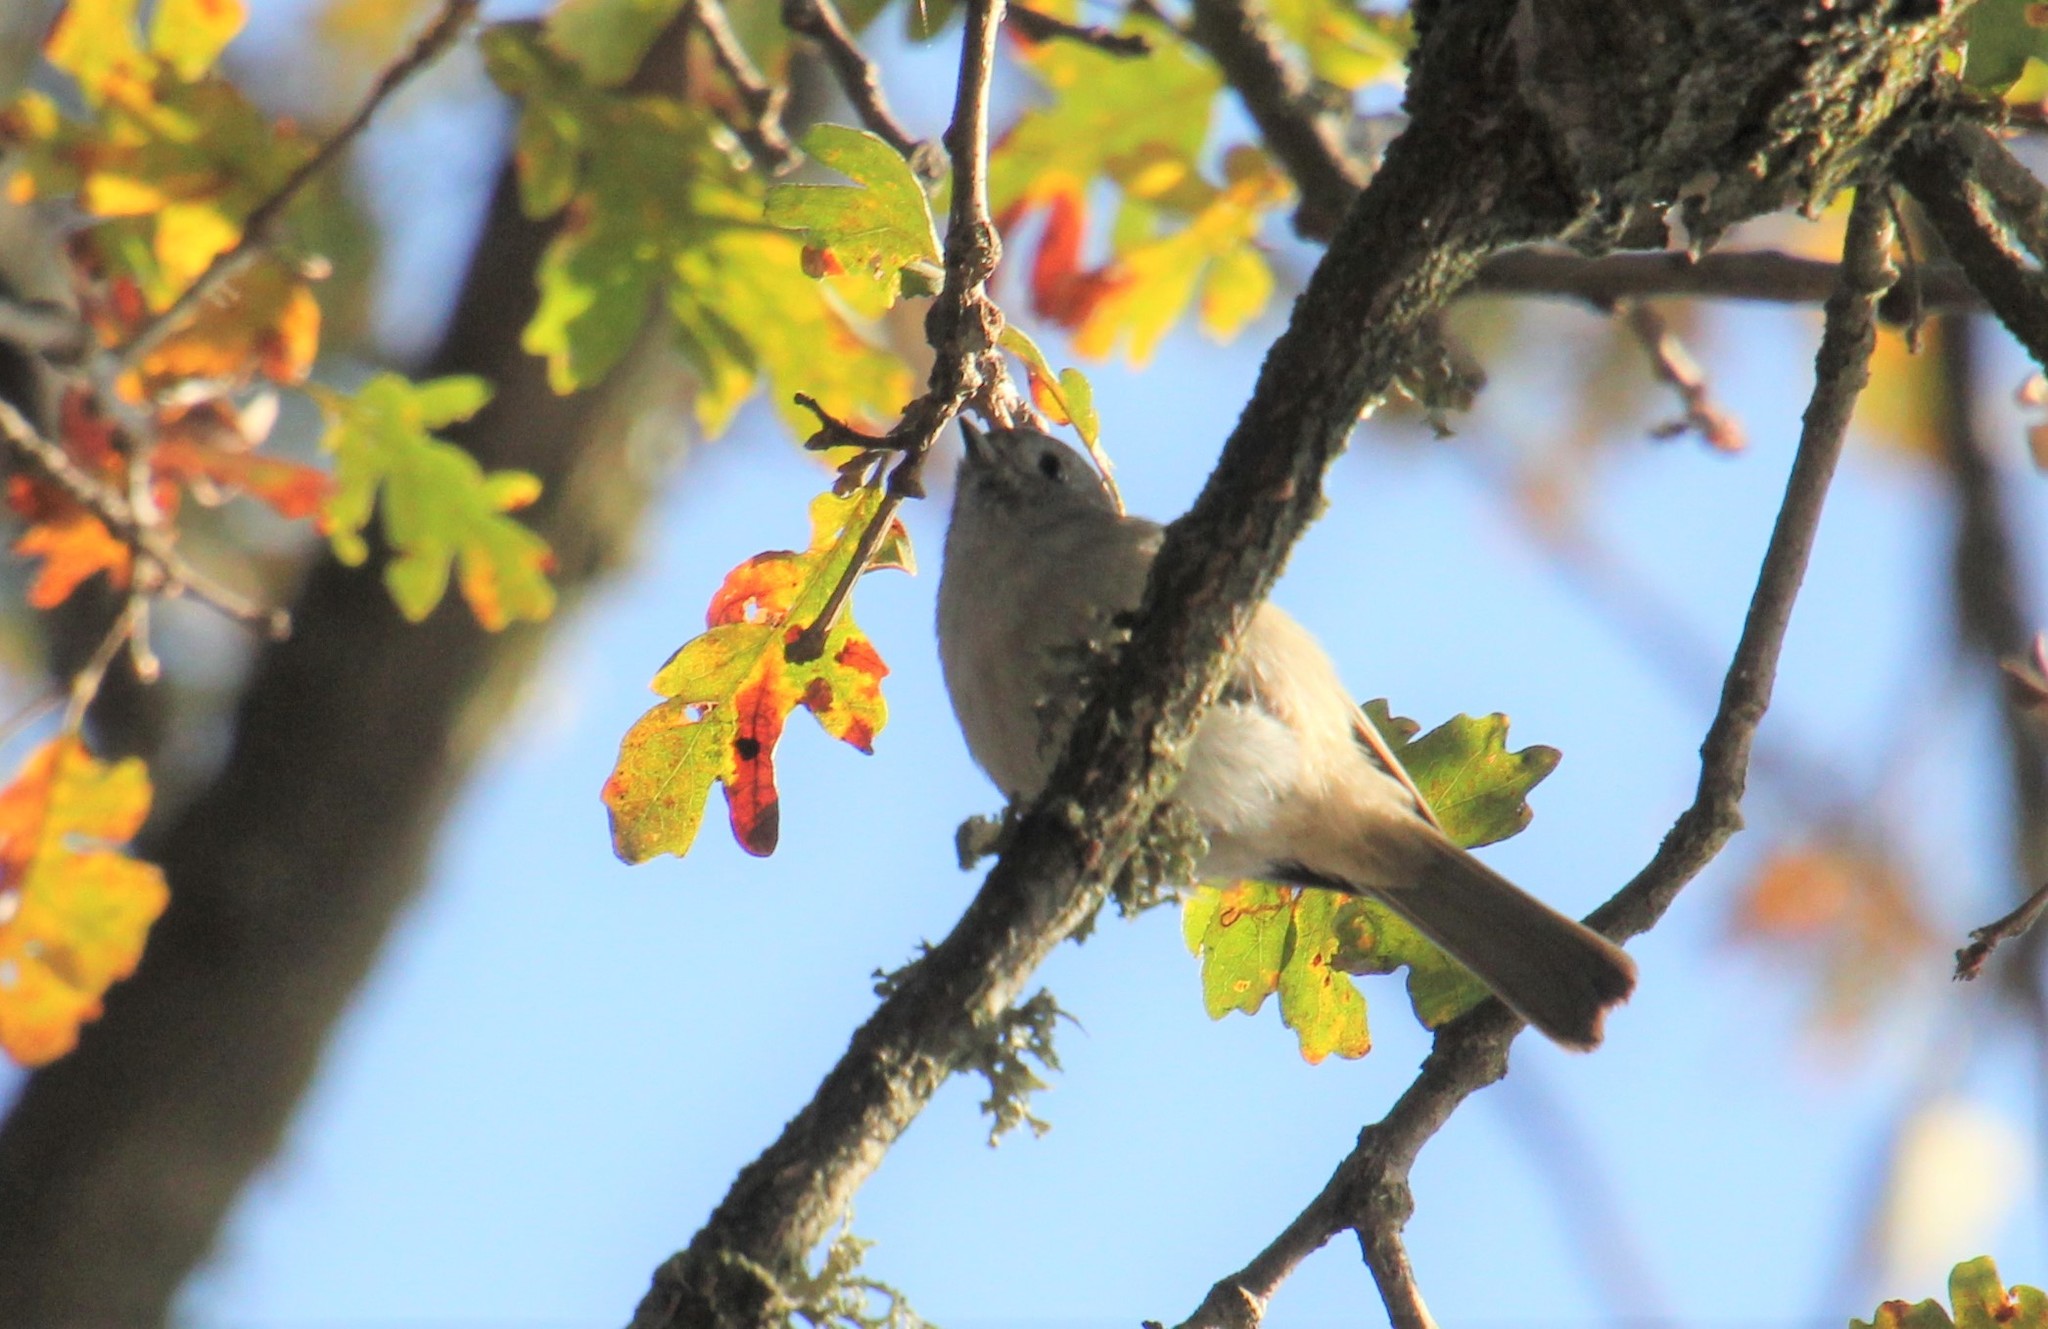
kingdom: Animalia
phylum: Chordata
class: Aves
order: Passeriformes
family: Paridae
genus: Baeolophus
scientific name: Baeolophus inornatus
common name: Oak titmouse
